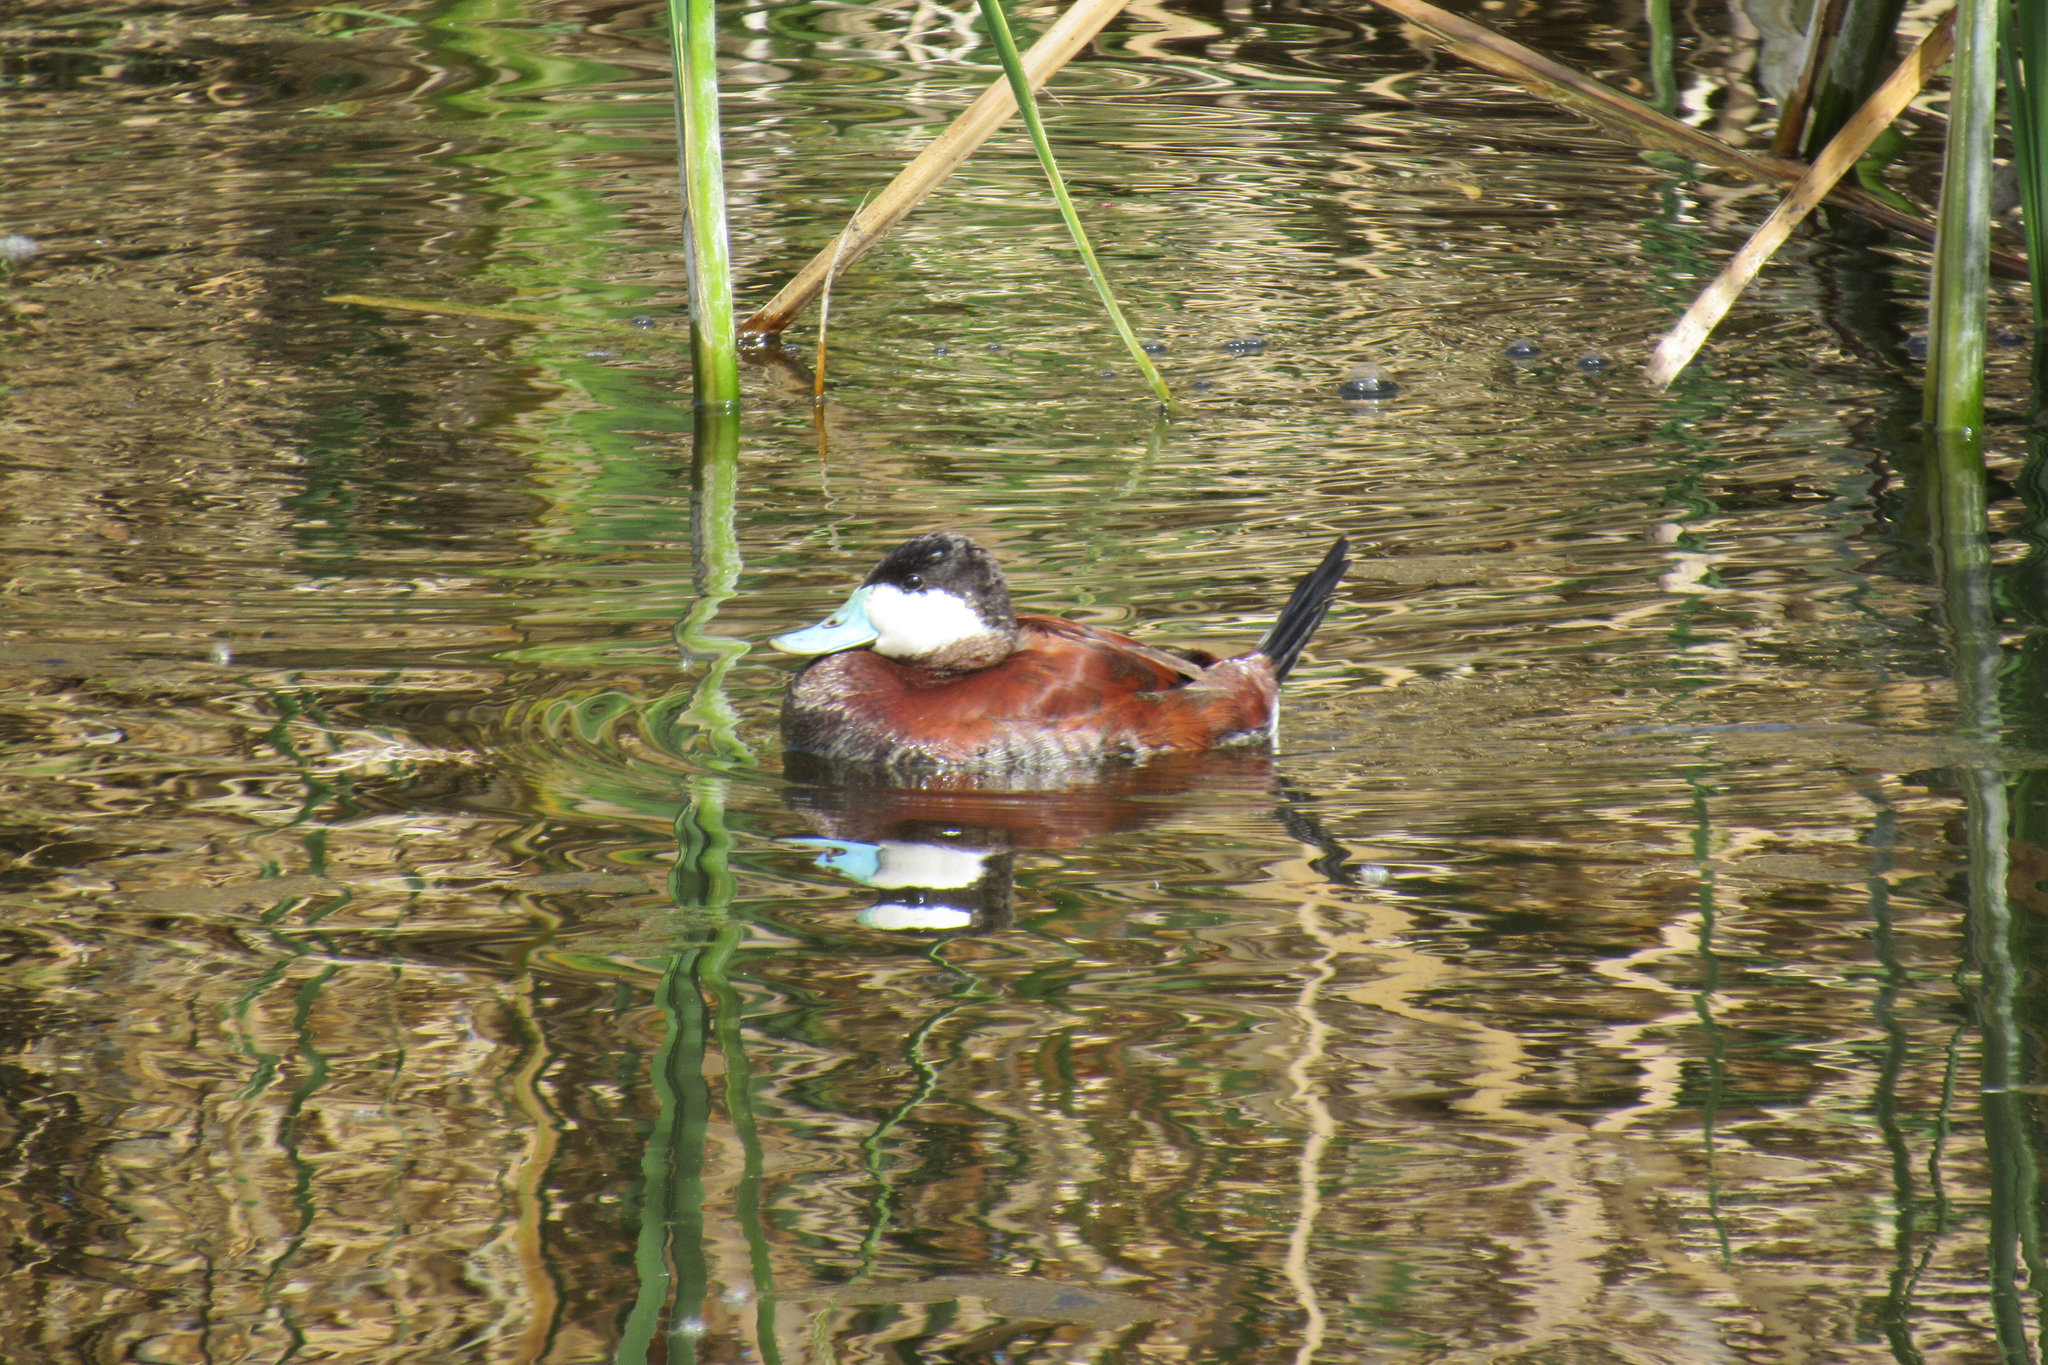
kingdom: Animalia
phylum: Chordata
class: Aves
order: Anseriformes
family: Anatidae
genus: Oxyura
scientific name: Oxyura jamaicensis
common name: Ruddy duck
